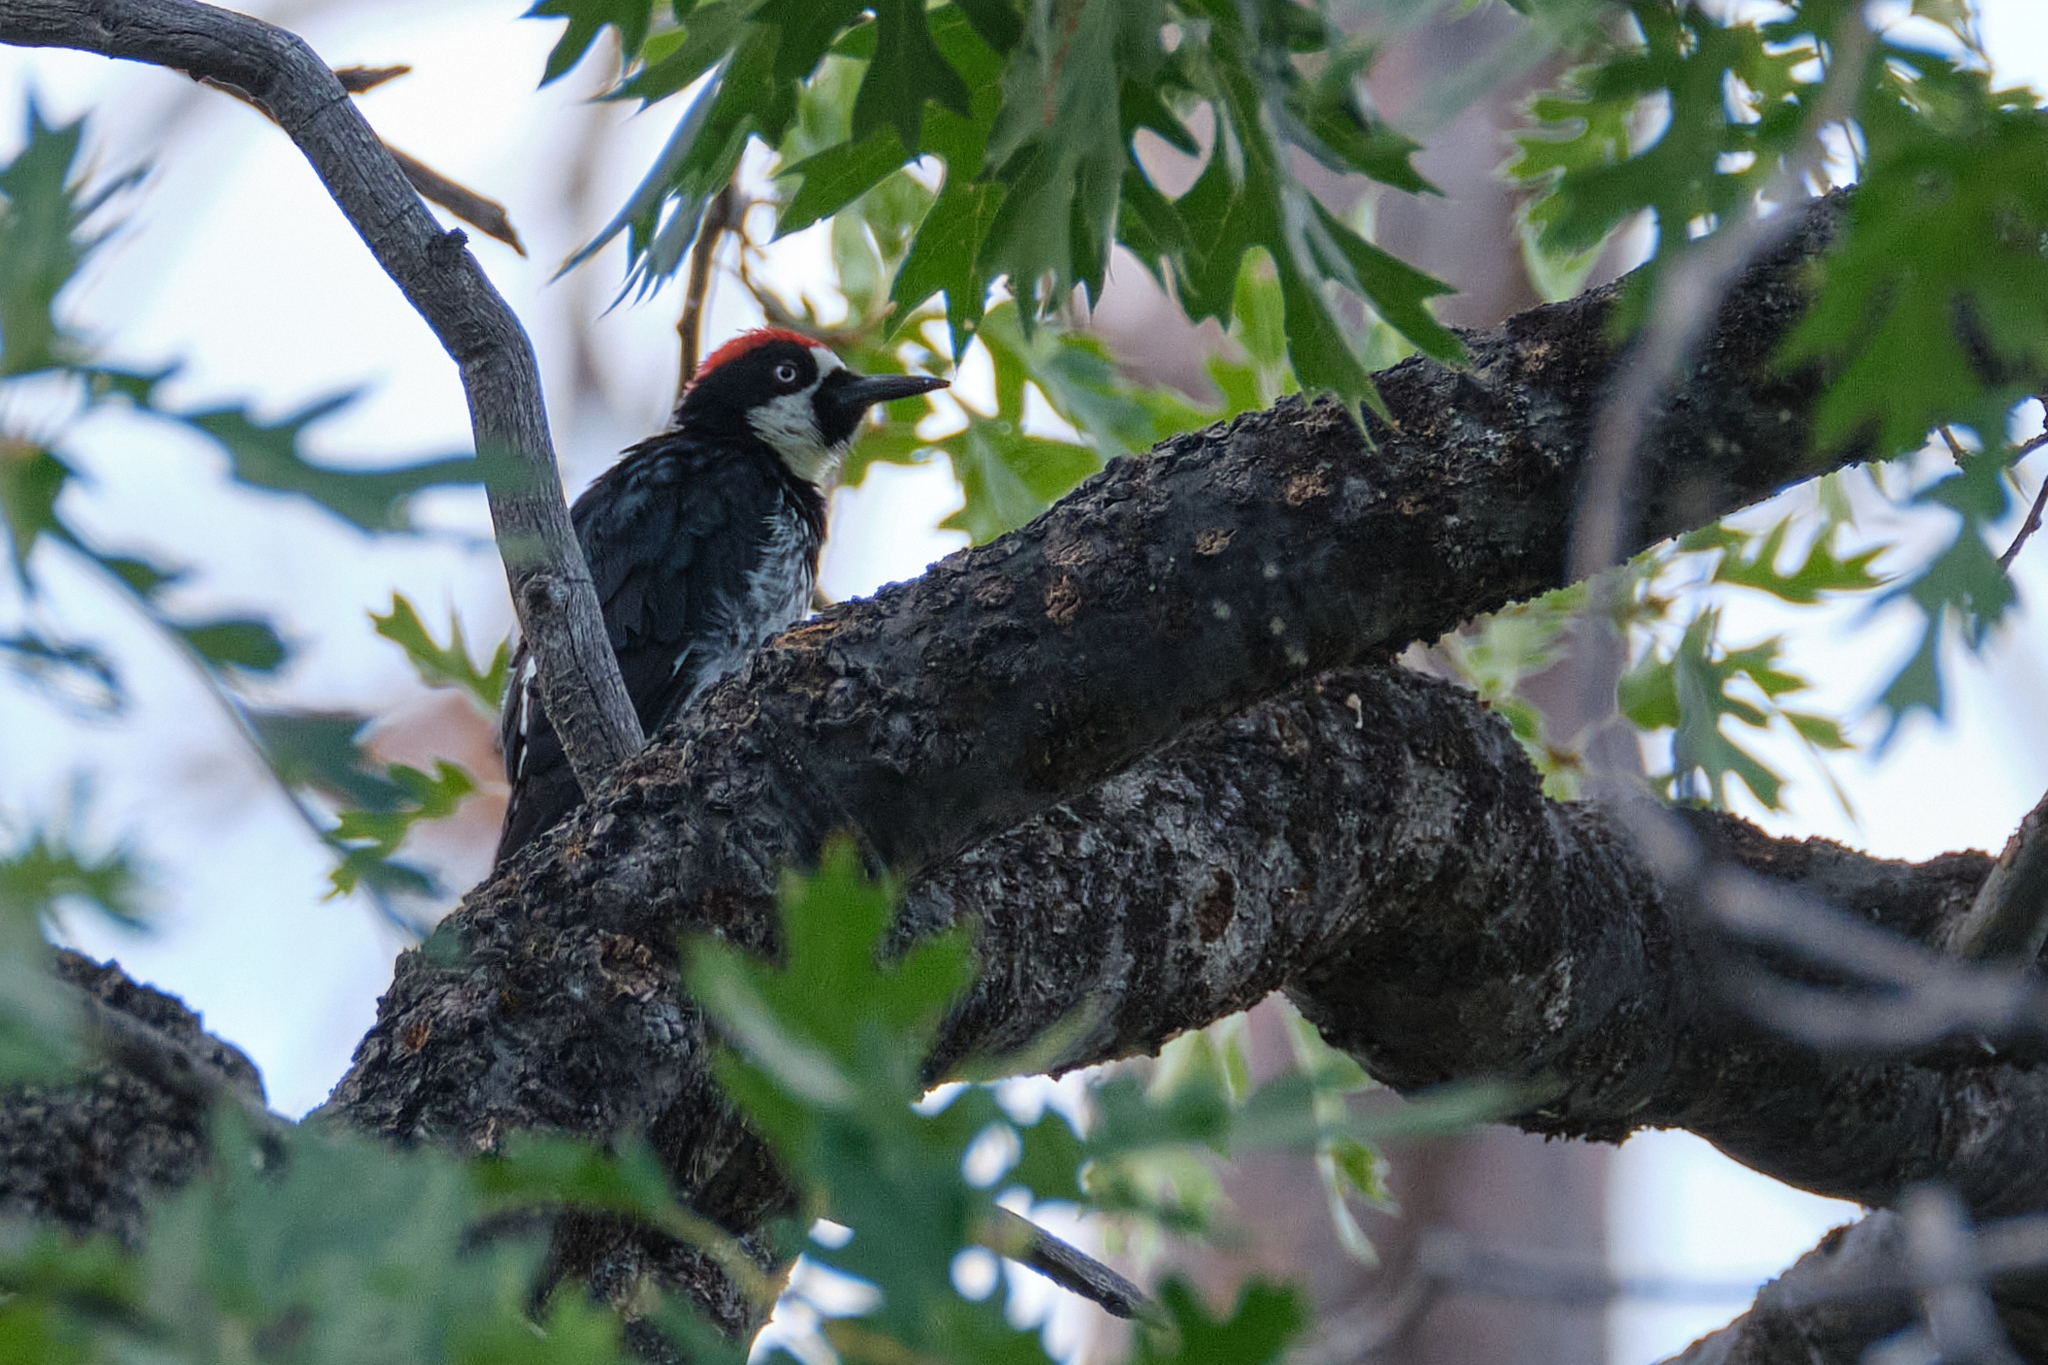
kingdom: Animalia
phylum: Chordata
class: Aves
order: Piciformes
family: Picidae
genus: Melanerpes
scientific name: Melanerpes formicivorus
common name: Acorn woodpecker
